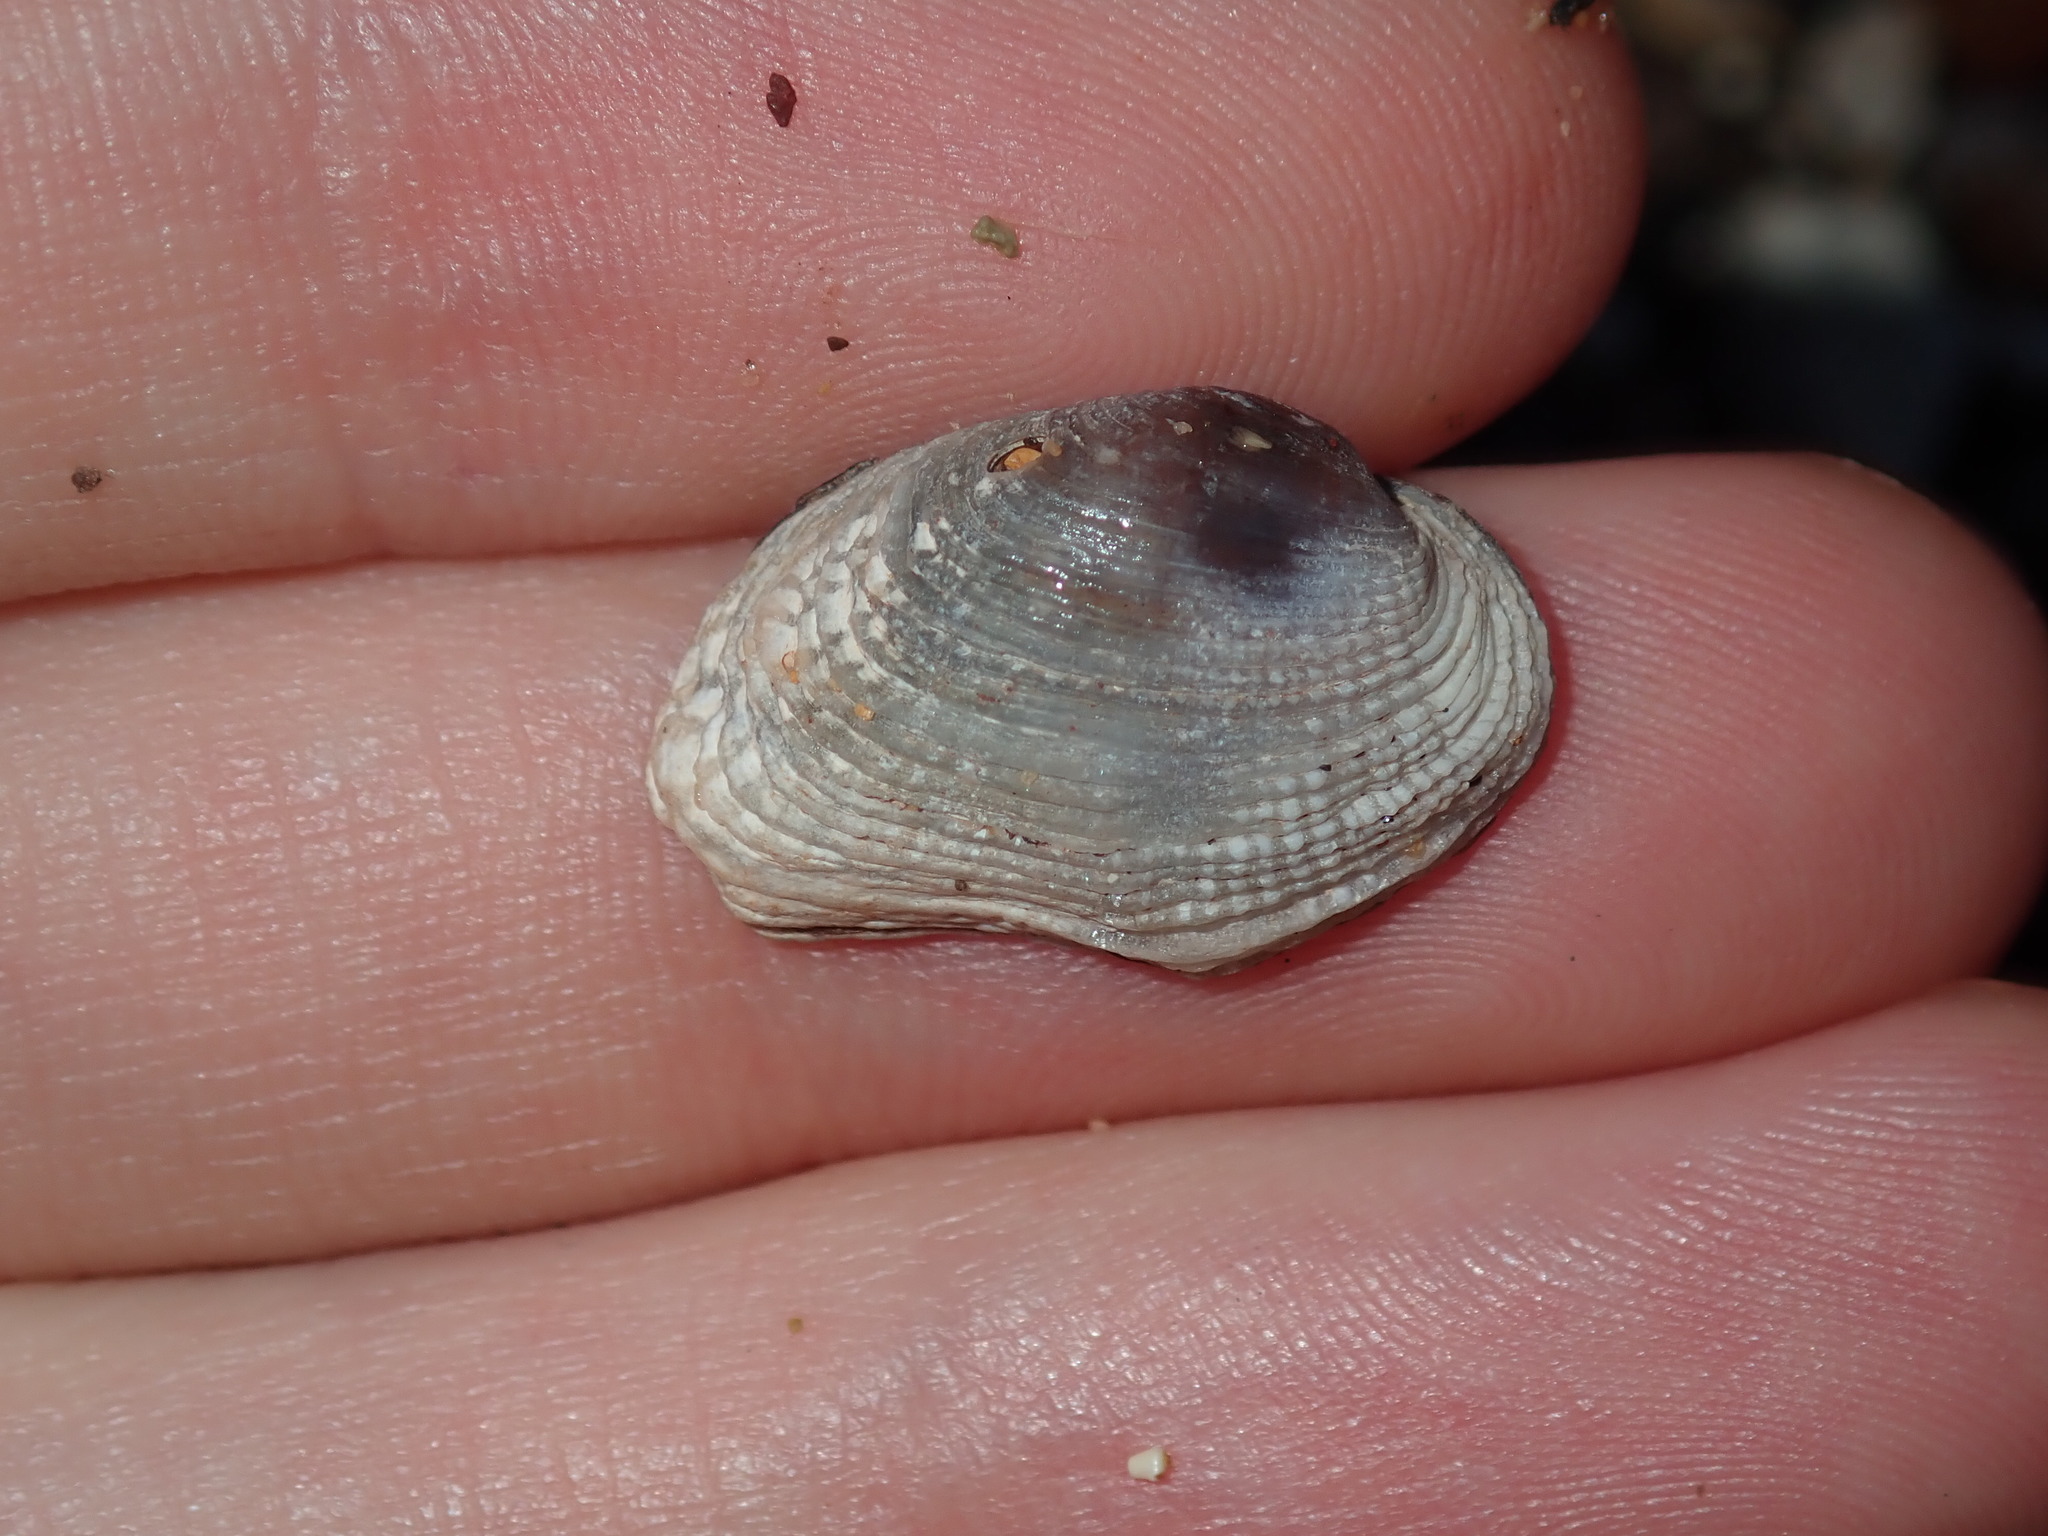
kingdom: Animalia
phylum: Mollusca
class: Bivalvia
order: Venerida
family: Veneridae
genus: Irus
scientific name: Irus cumingii
